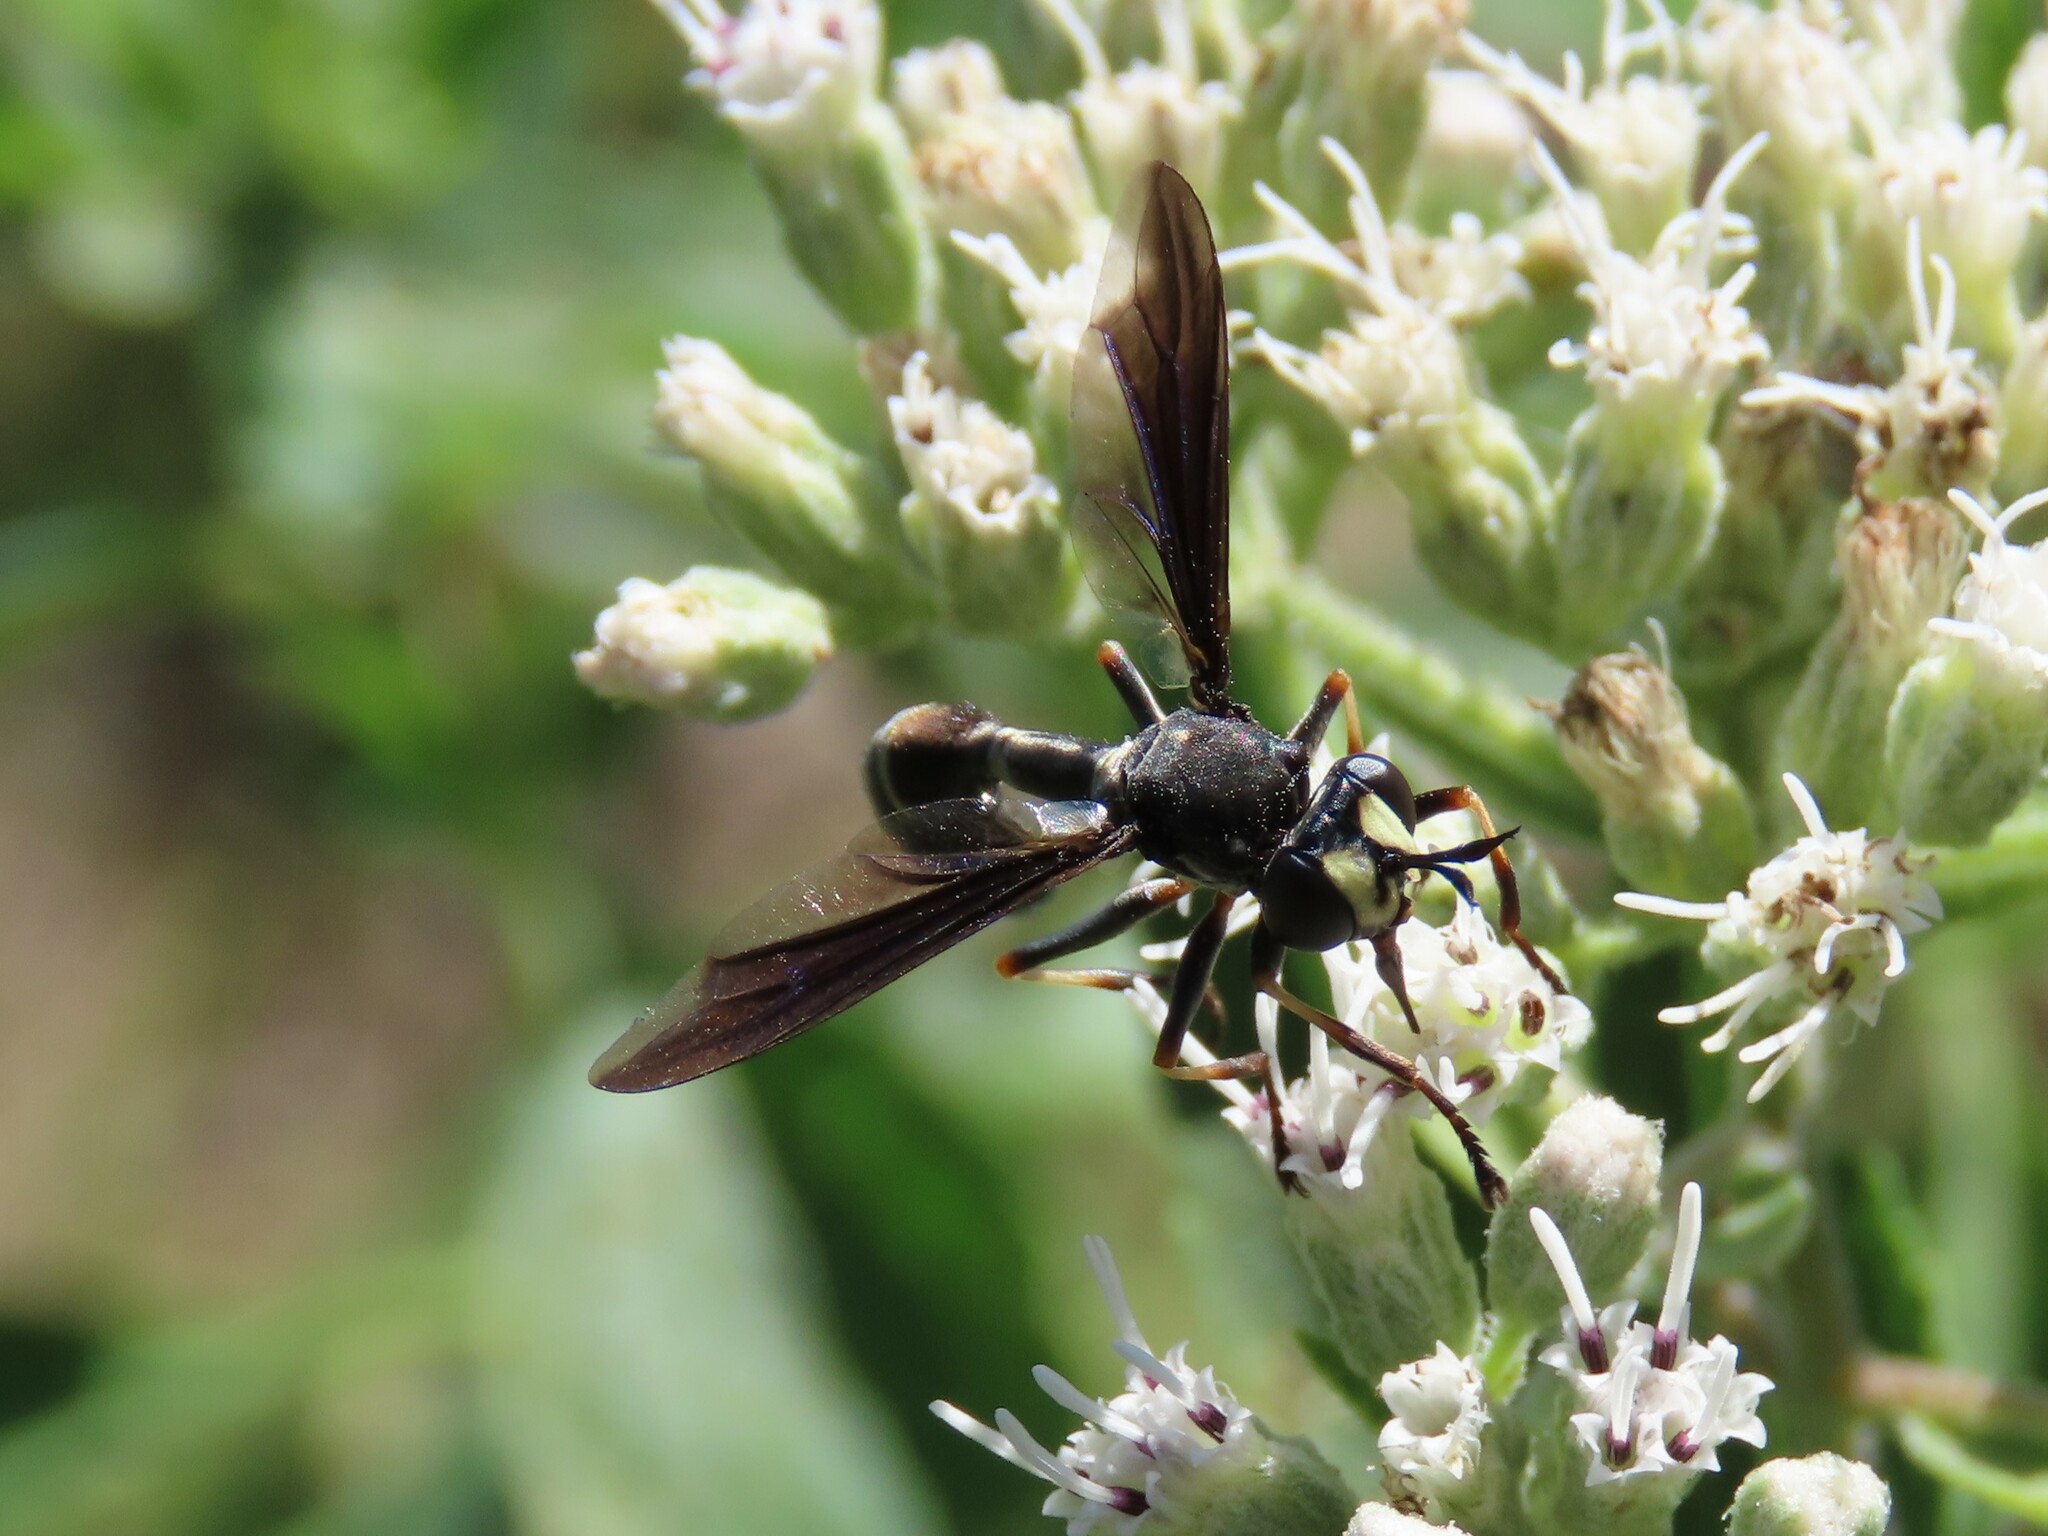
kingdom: Animalia
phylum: Arthropoda
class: Insecta
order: Diptera
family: Conopidae
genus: Physocephala
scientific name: Physocephala tibialis
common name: Common eastern physocephala
